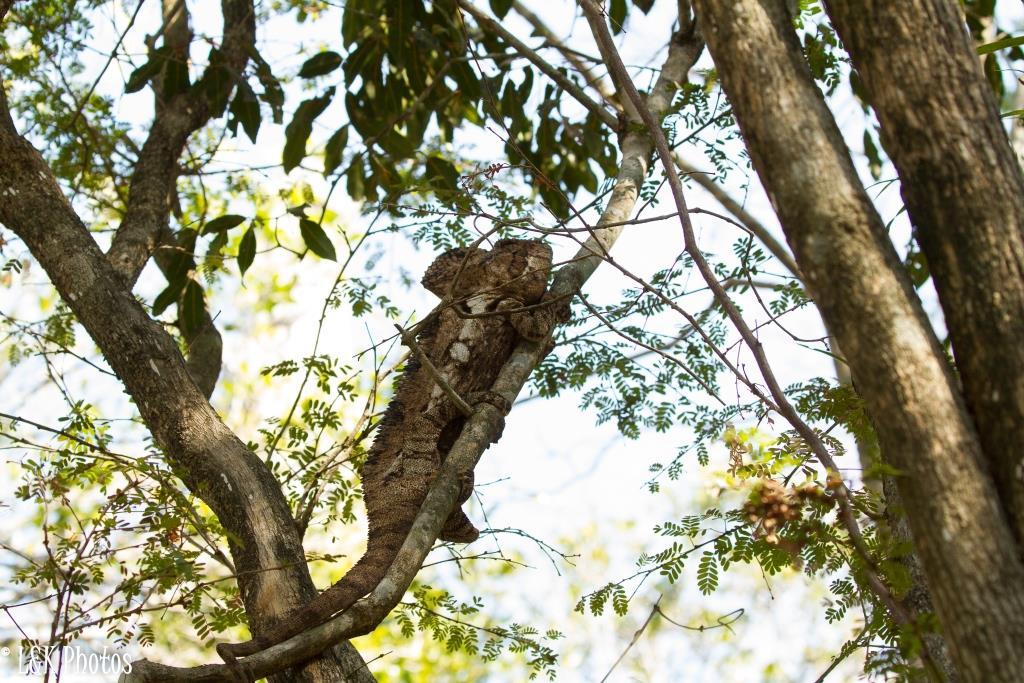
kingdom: Animalia
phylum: Chordata
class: Squamata
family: Chamaeleonidae
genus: Furcifer
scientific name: Furcifer oustaleti
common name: Oustalet's chameleon
